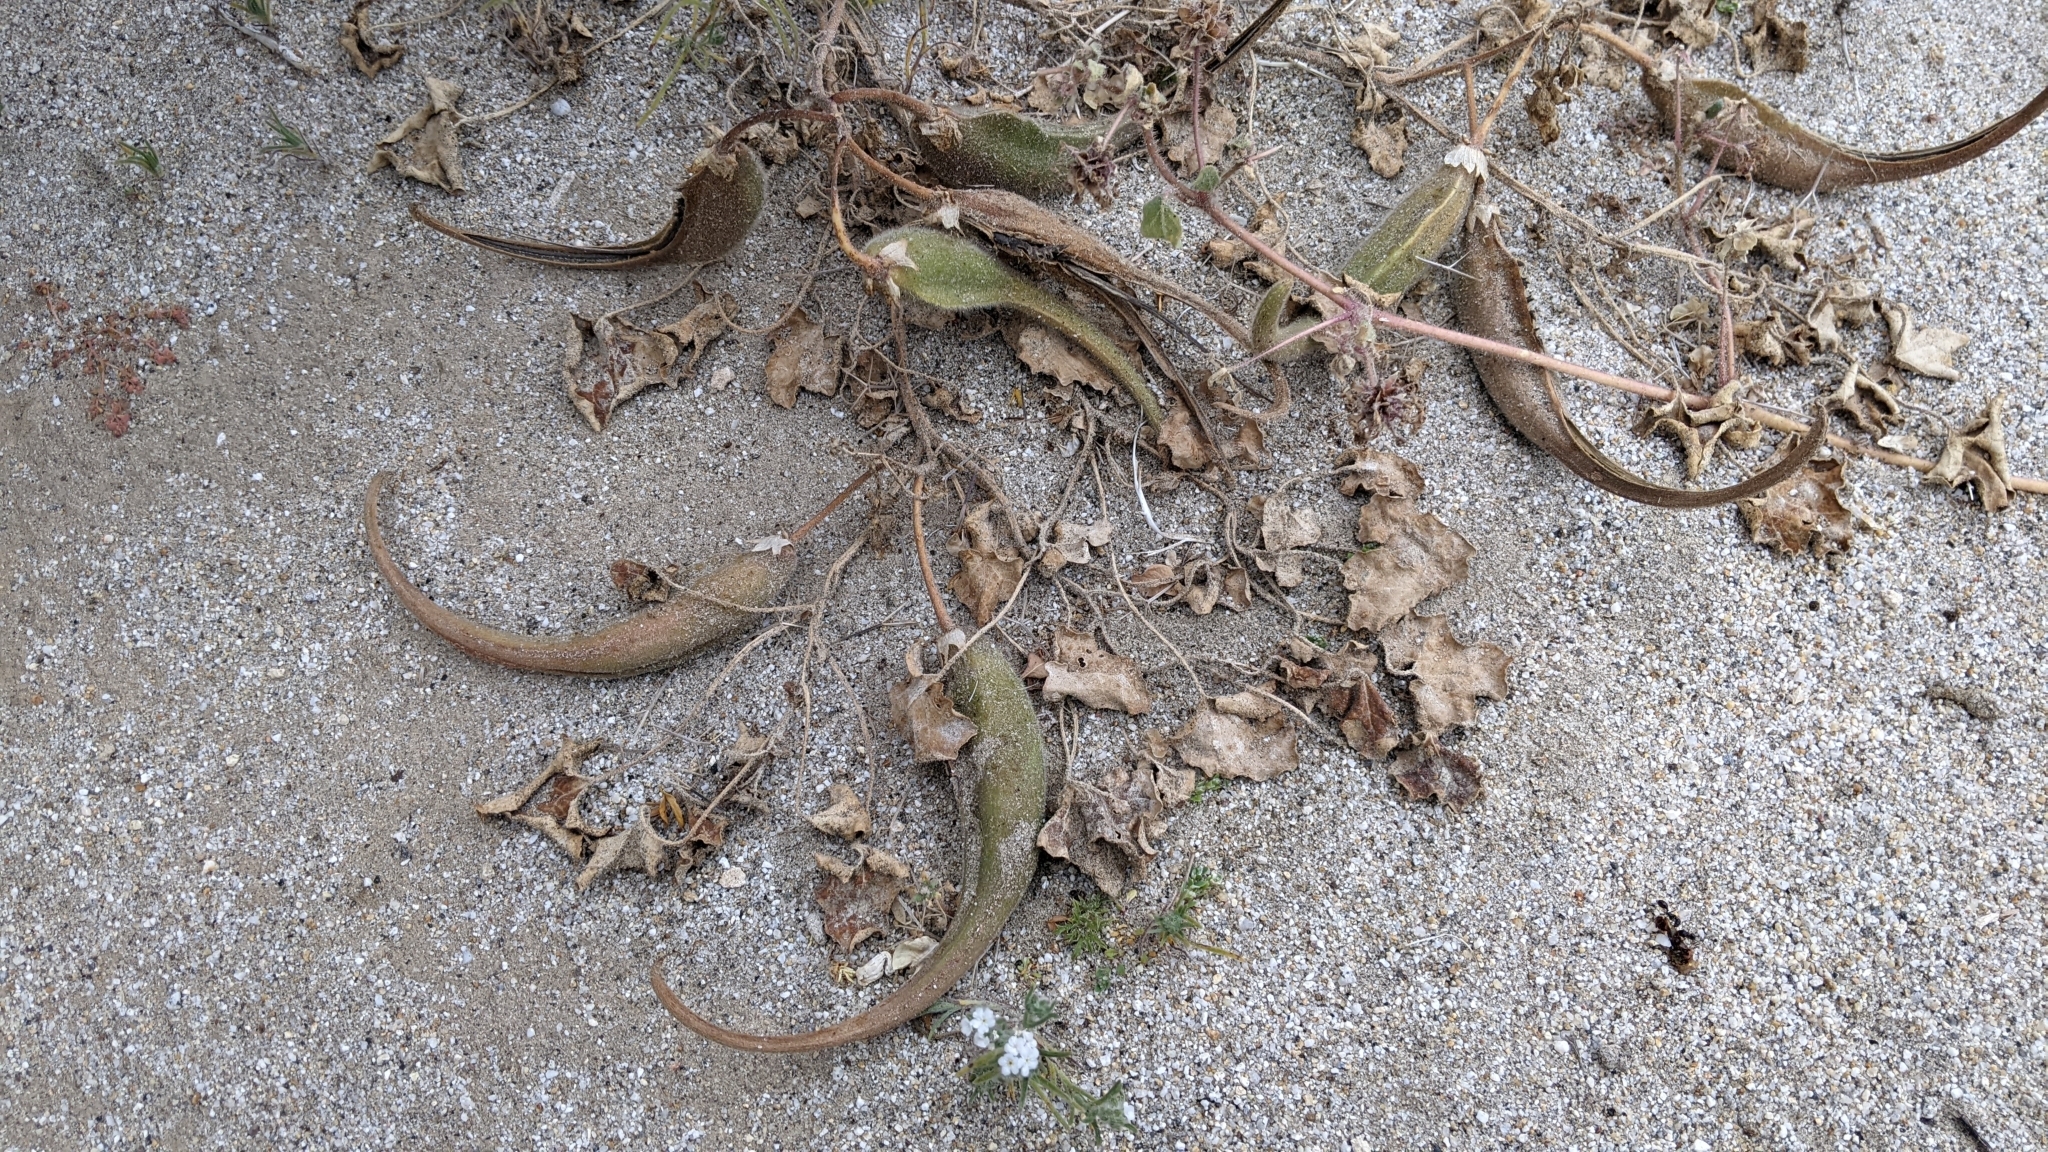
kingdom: Plantae
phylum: Tracheophyta
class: Magnoliopsida
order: Lamiales
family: Martyniaceae
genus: Proboscidea
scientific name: Proboscidea althaeifolia
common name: Desert unicorn-plant
